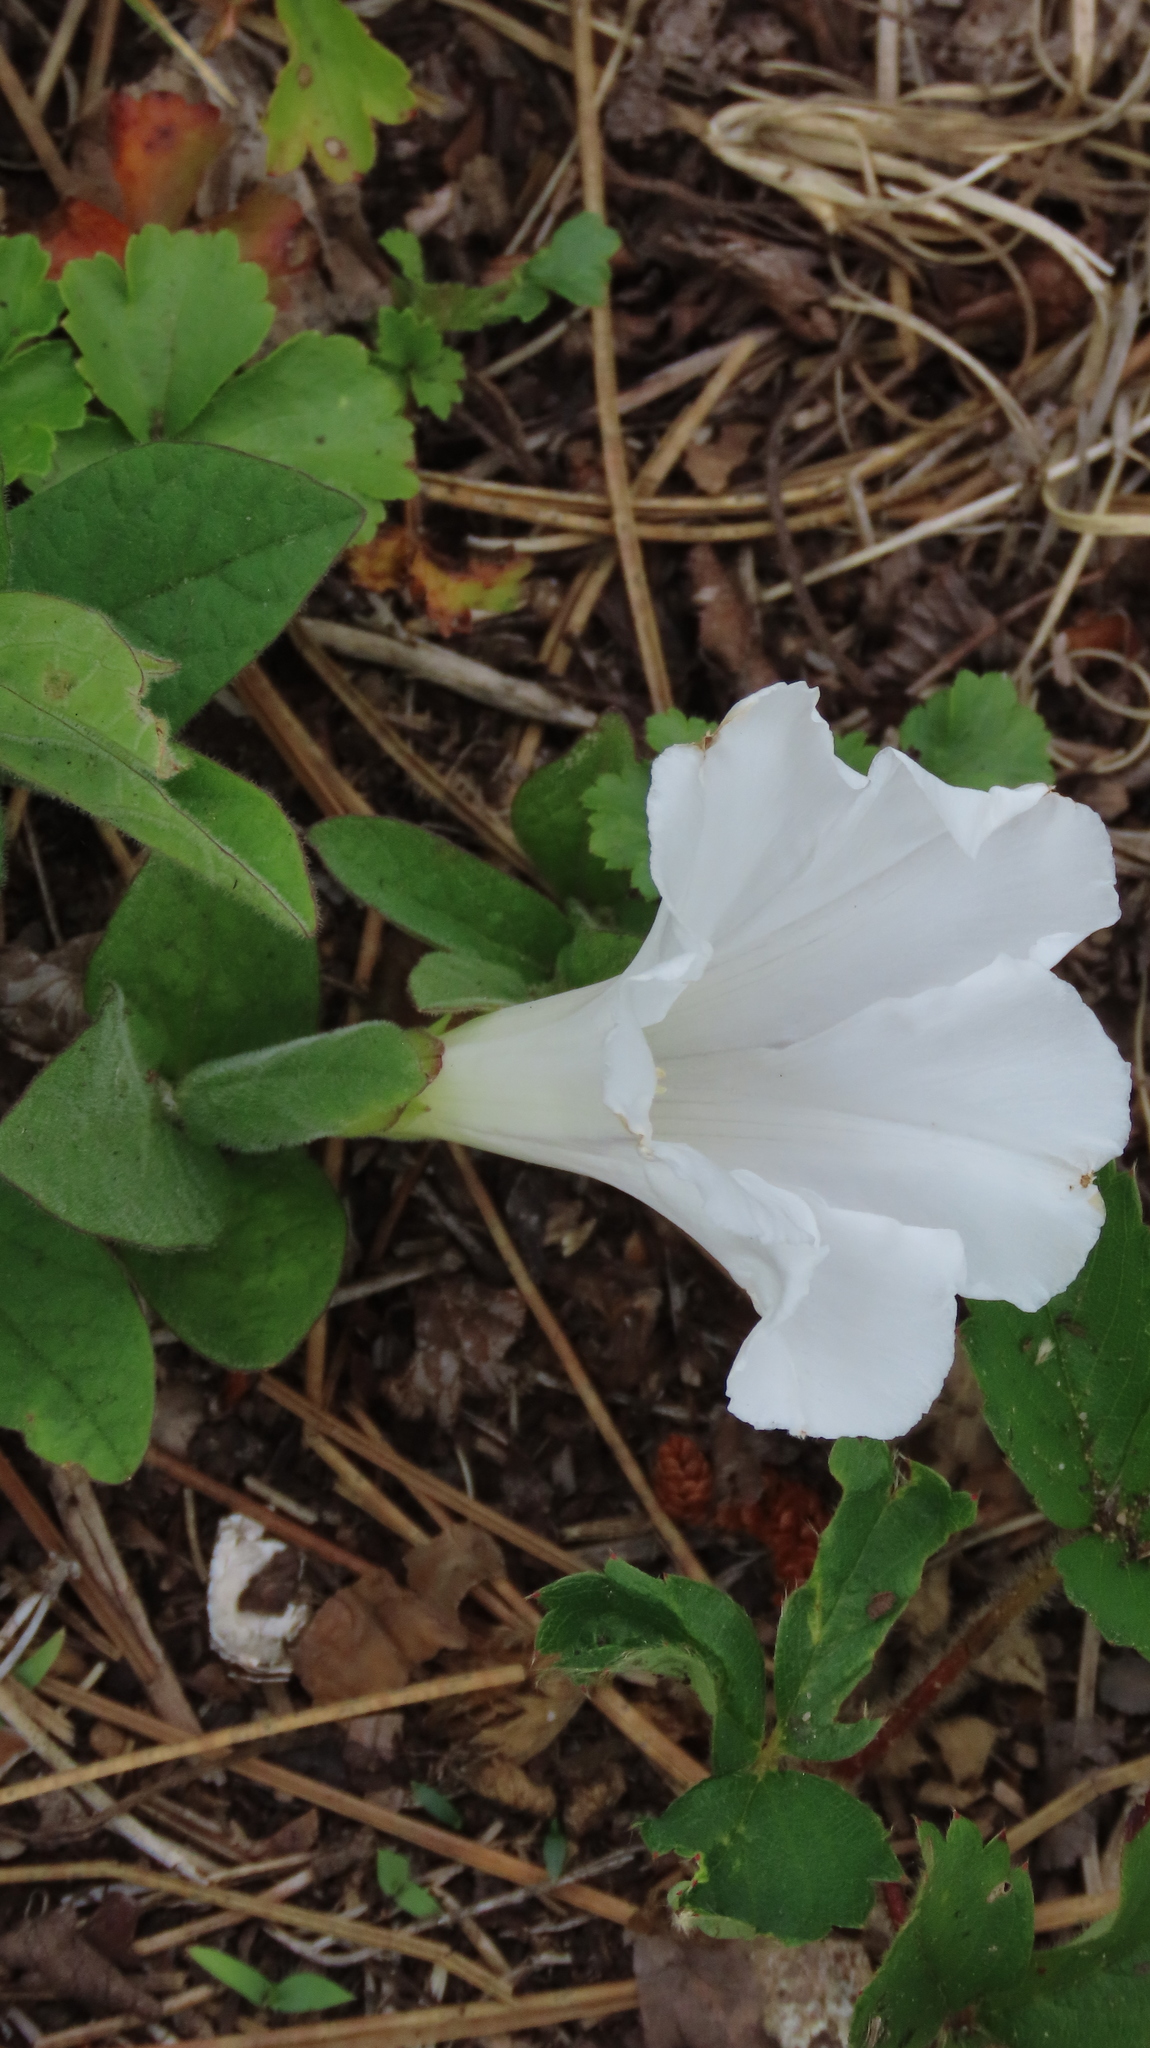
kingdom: Plantae
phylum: Tracheophyta
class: Magnoliopsida
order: Solanales
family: Convolvulaceae
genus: Calystegia
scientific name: Calystegia spithamaea
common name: Dwarf bindweed
